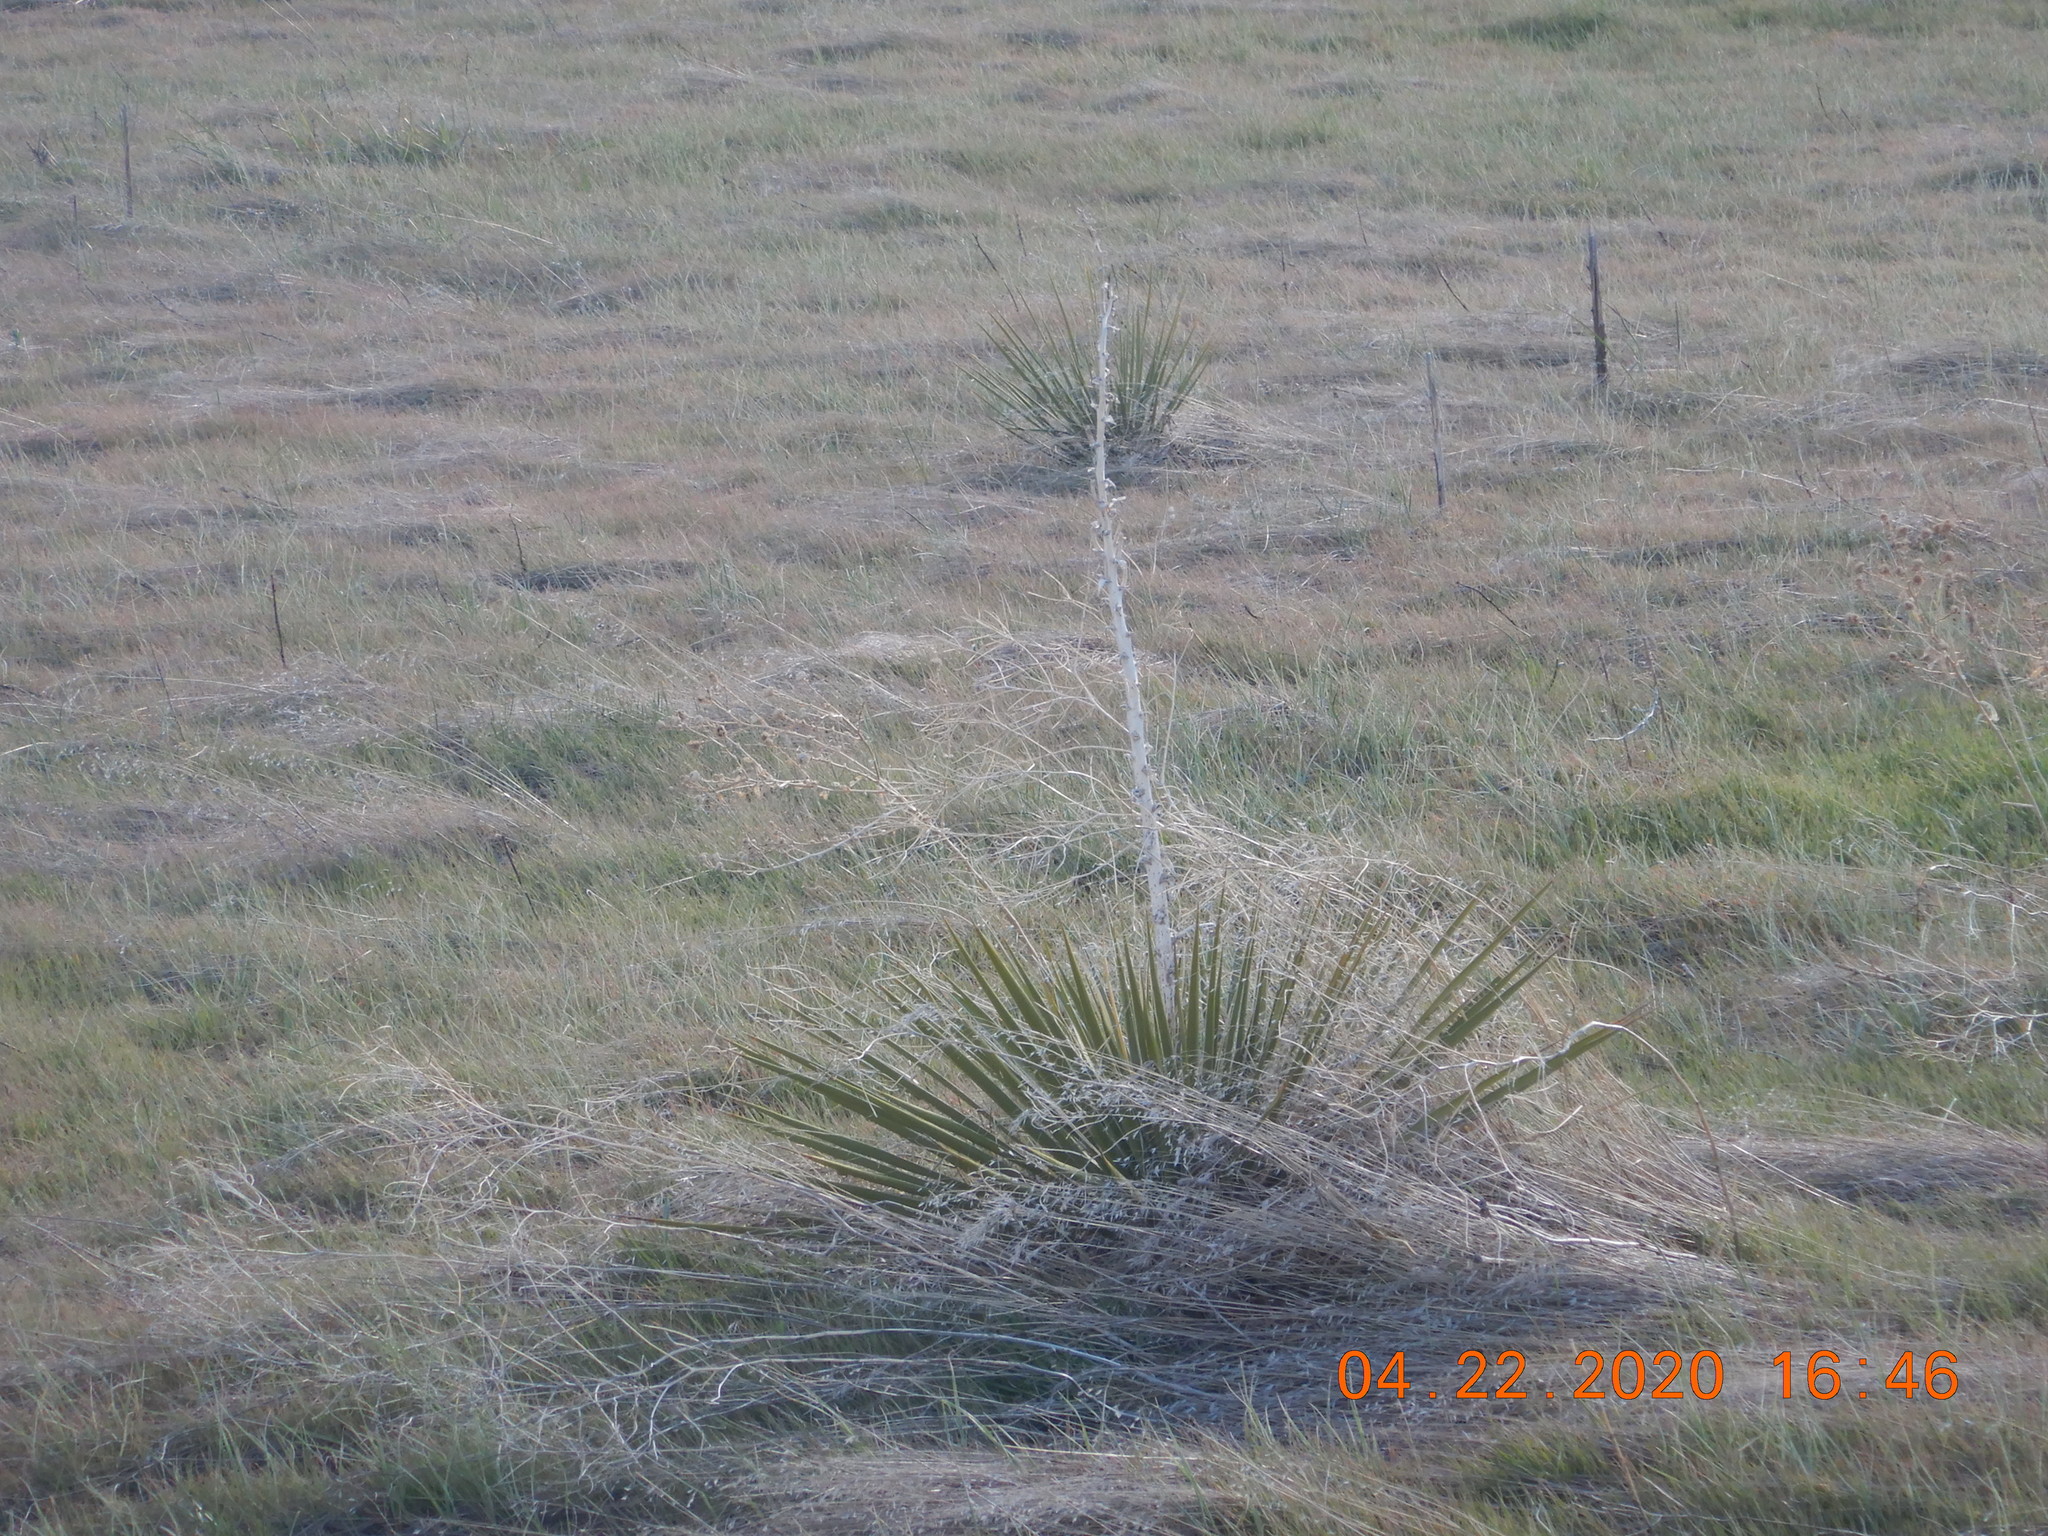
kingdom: Plantae
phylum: Tracheophyta
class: Liliopsida
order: Asparagales
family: Asparagaceae
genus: Yucca
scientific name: Yucca glauca
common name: Great plains yucca
